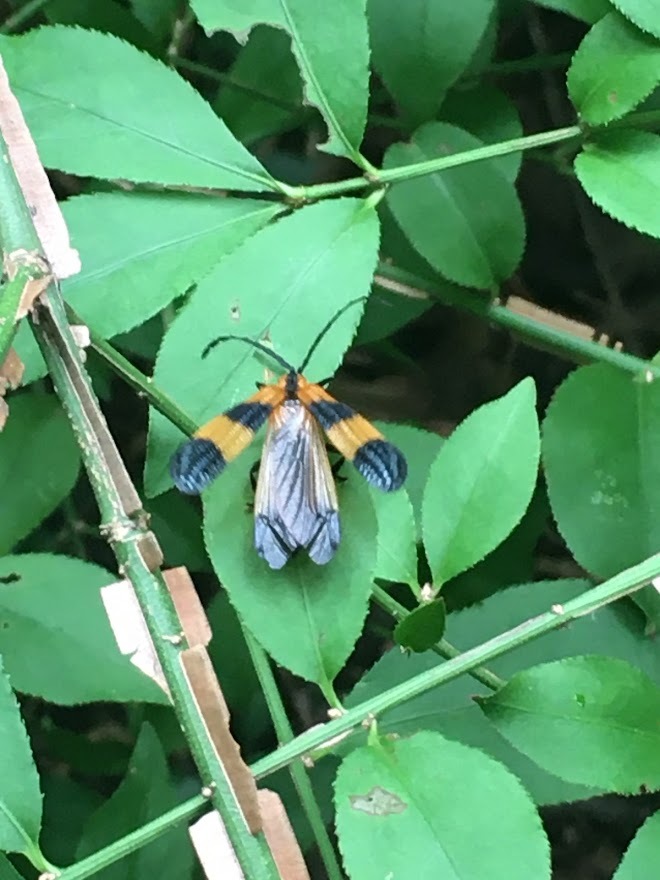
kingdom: Animalia
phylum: Arthropoda
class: Insecta
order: Coleoptera
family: Lycidae
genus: Calopteron
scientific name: Calopteron terminale
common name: End band net-winged beetle
